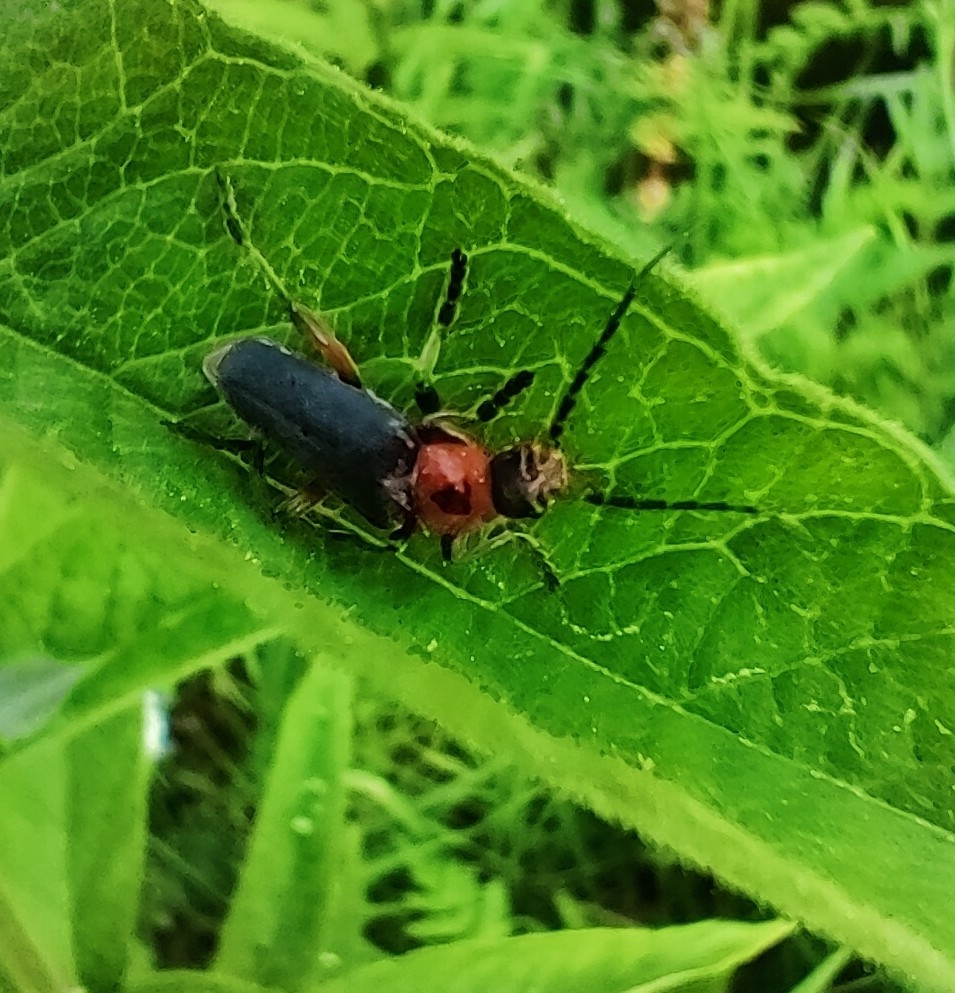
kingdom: Animalia
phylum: Arthropoda
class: Insecta
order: Coleoptera
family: Cantharidae
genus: Cantharis
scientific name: Cantharis rustica
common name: Soldier beetle
